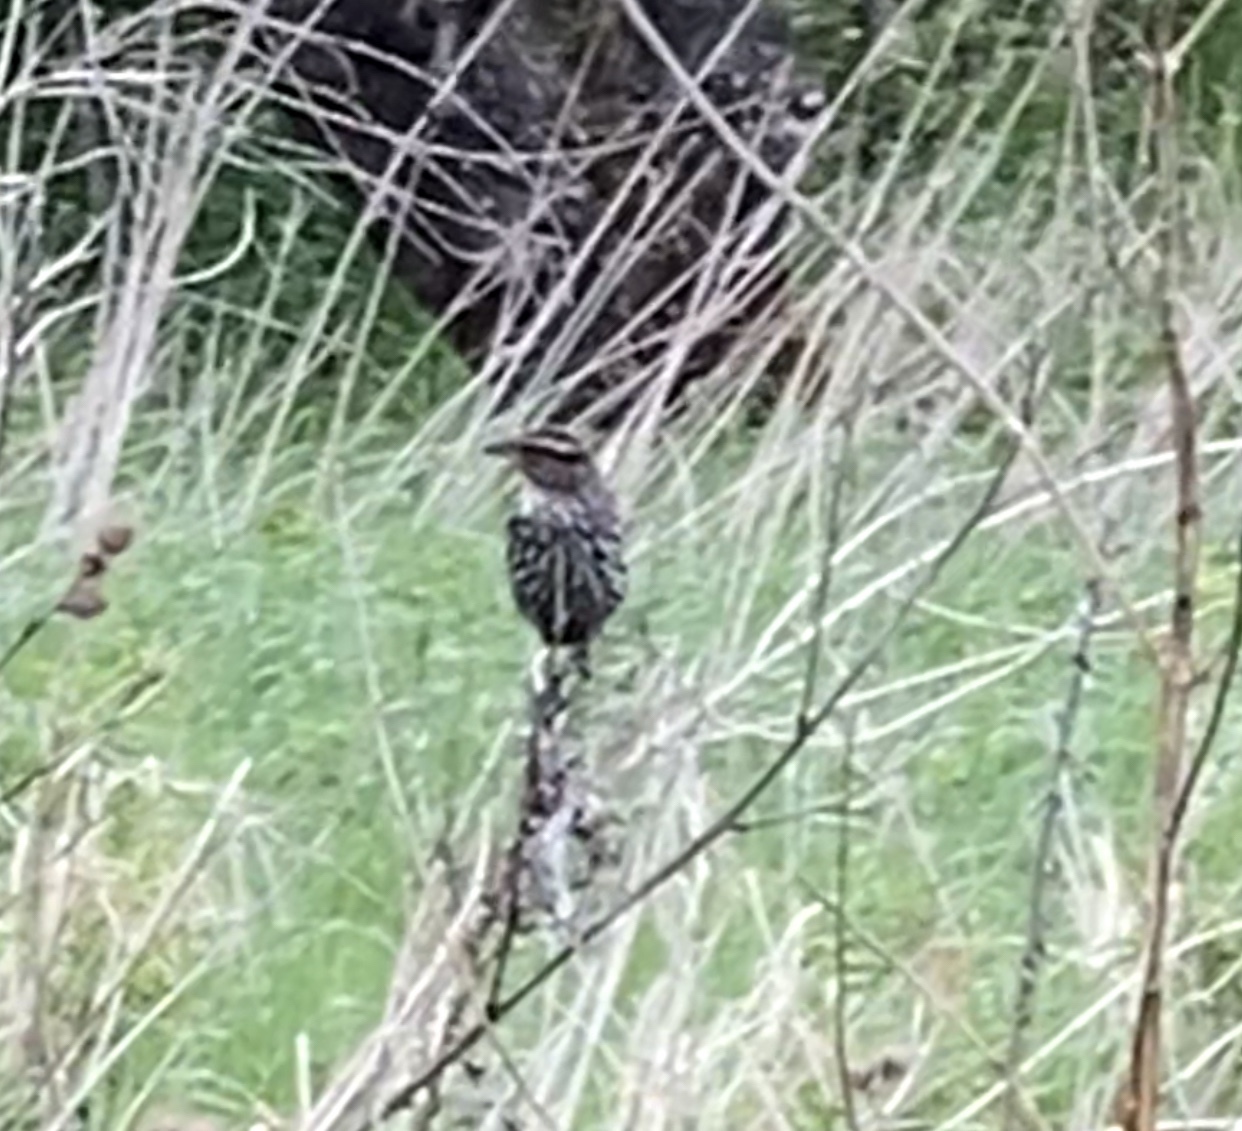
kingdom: Animalia
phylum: Chordata
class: Aves
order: Passeriformes
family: Icteridae
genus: Agelaius
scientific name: Agelaius phoeniceus
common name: Red-winged blackbird
